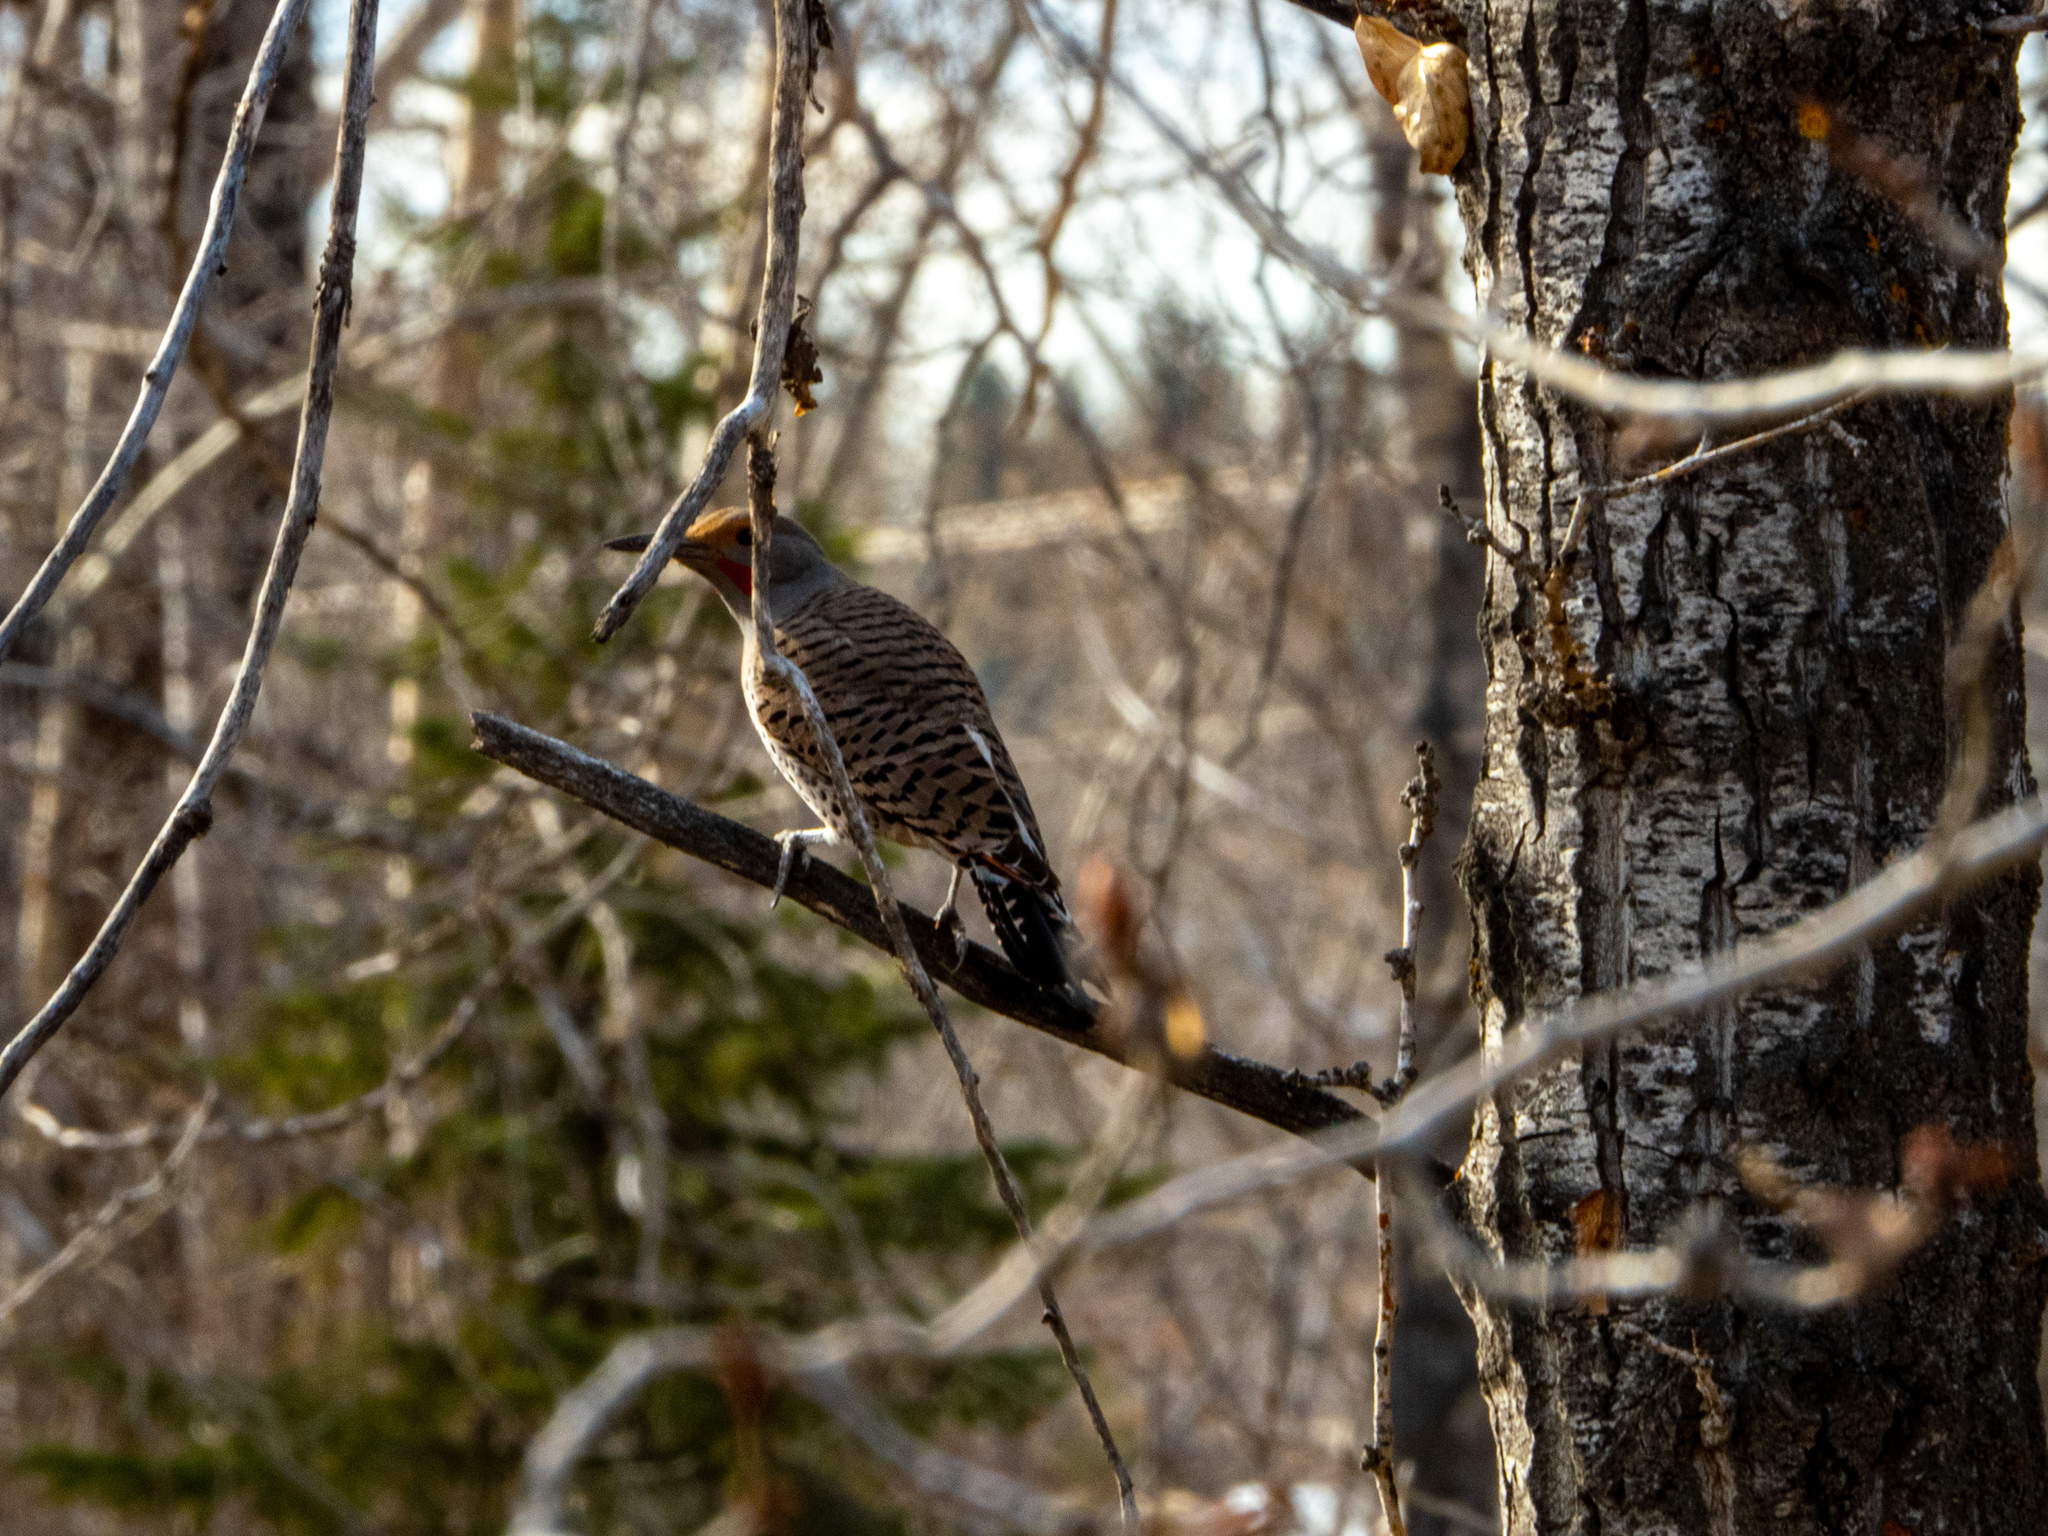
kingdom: Animalia
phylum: Chordata
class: Aves
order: Piciformes
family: Picidae
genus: Colaptes
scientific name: Colaptes auratus
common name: Northern flicker
